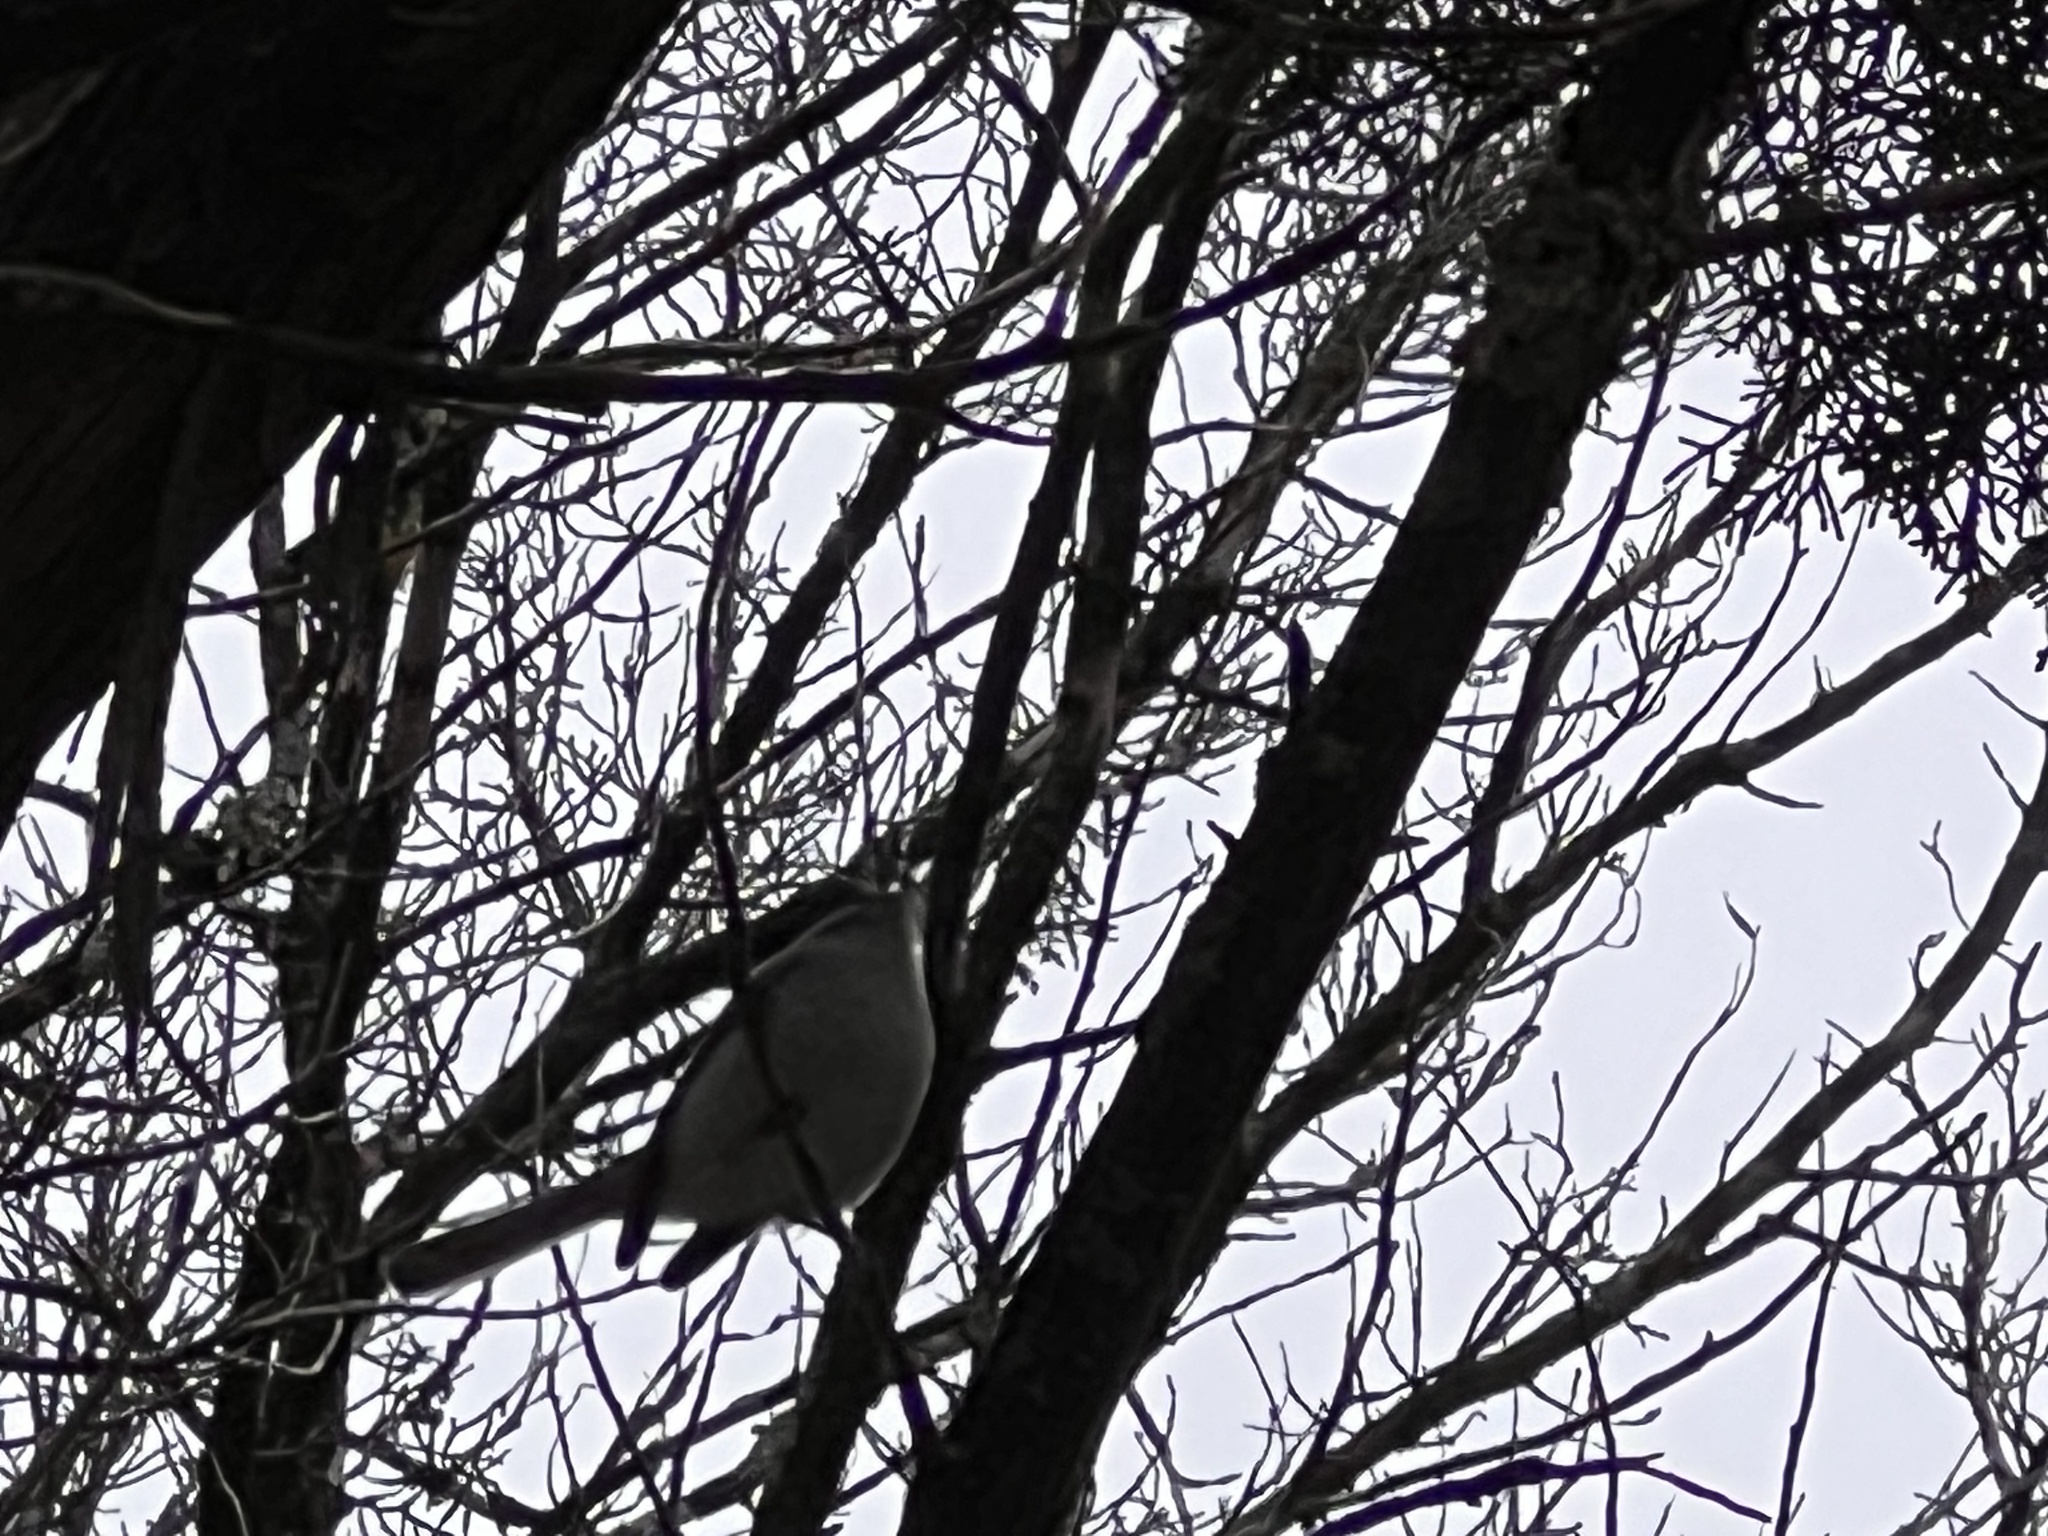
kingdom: Animalia
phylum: Chordata
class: Aves
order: Passeriformes
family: Polioptilidae
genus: Polioptila
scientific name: Polioptila caerulea
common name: Blue-gray gnatcatcher
